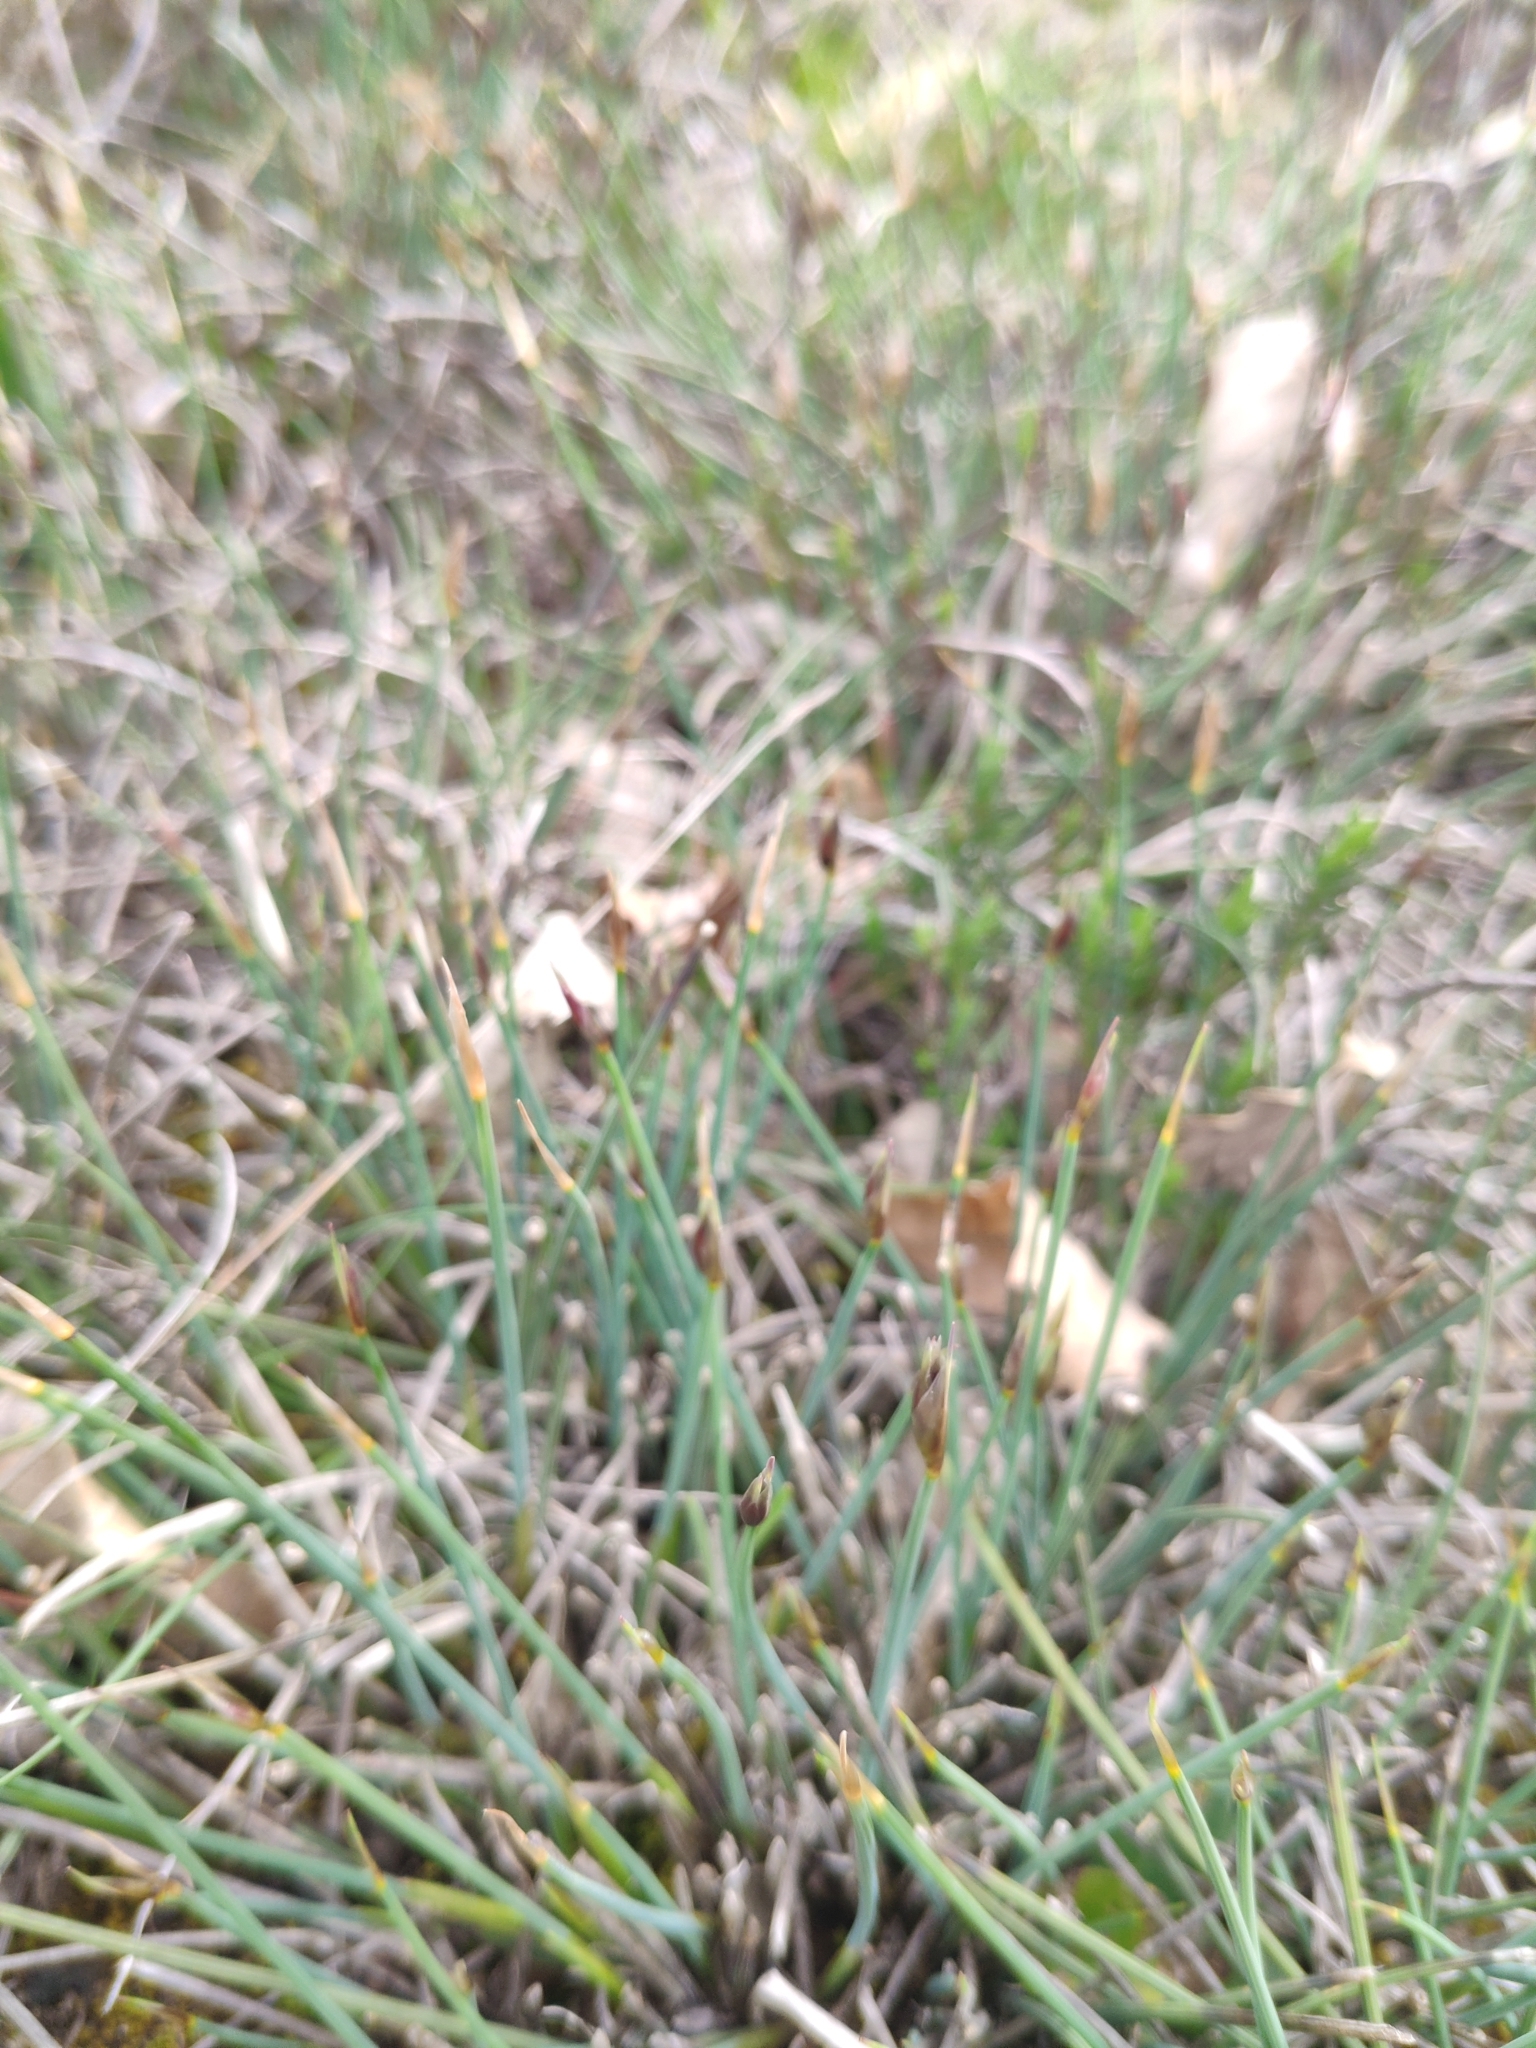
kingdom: Plantae
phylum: Tracheophyta
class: Liliopsida
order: Asparagales
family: Asparagaceae
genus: Aphyllanthes
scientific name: Aphyllanthes monspeliensis
